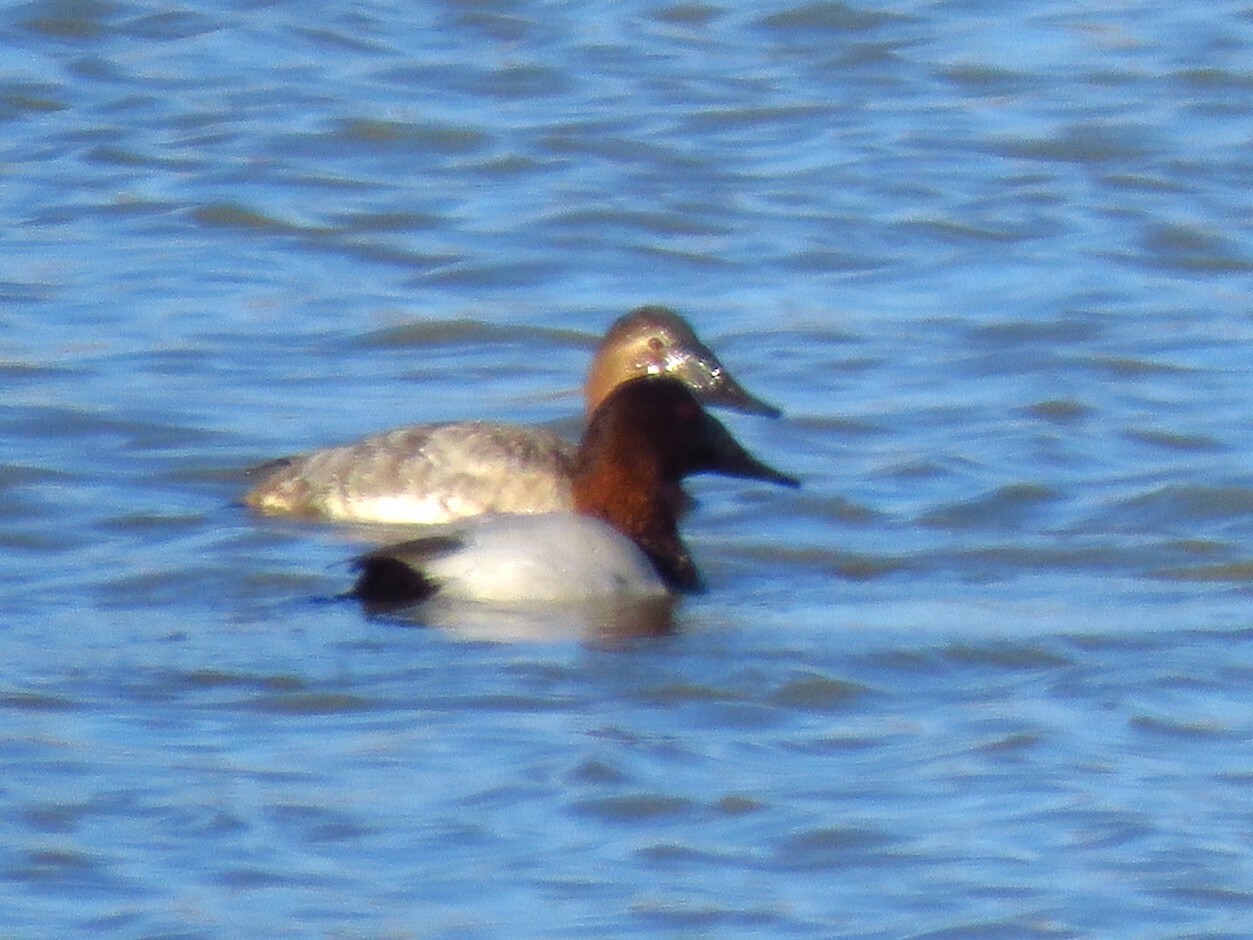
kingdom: Animalia
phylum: Chordata
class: Aves
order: Anseriformes
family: Anatidae
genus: Aythya
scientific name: Aythya valisineria
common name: Canvasback
